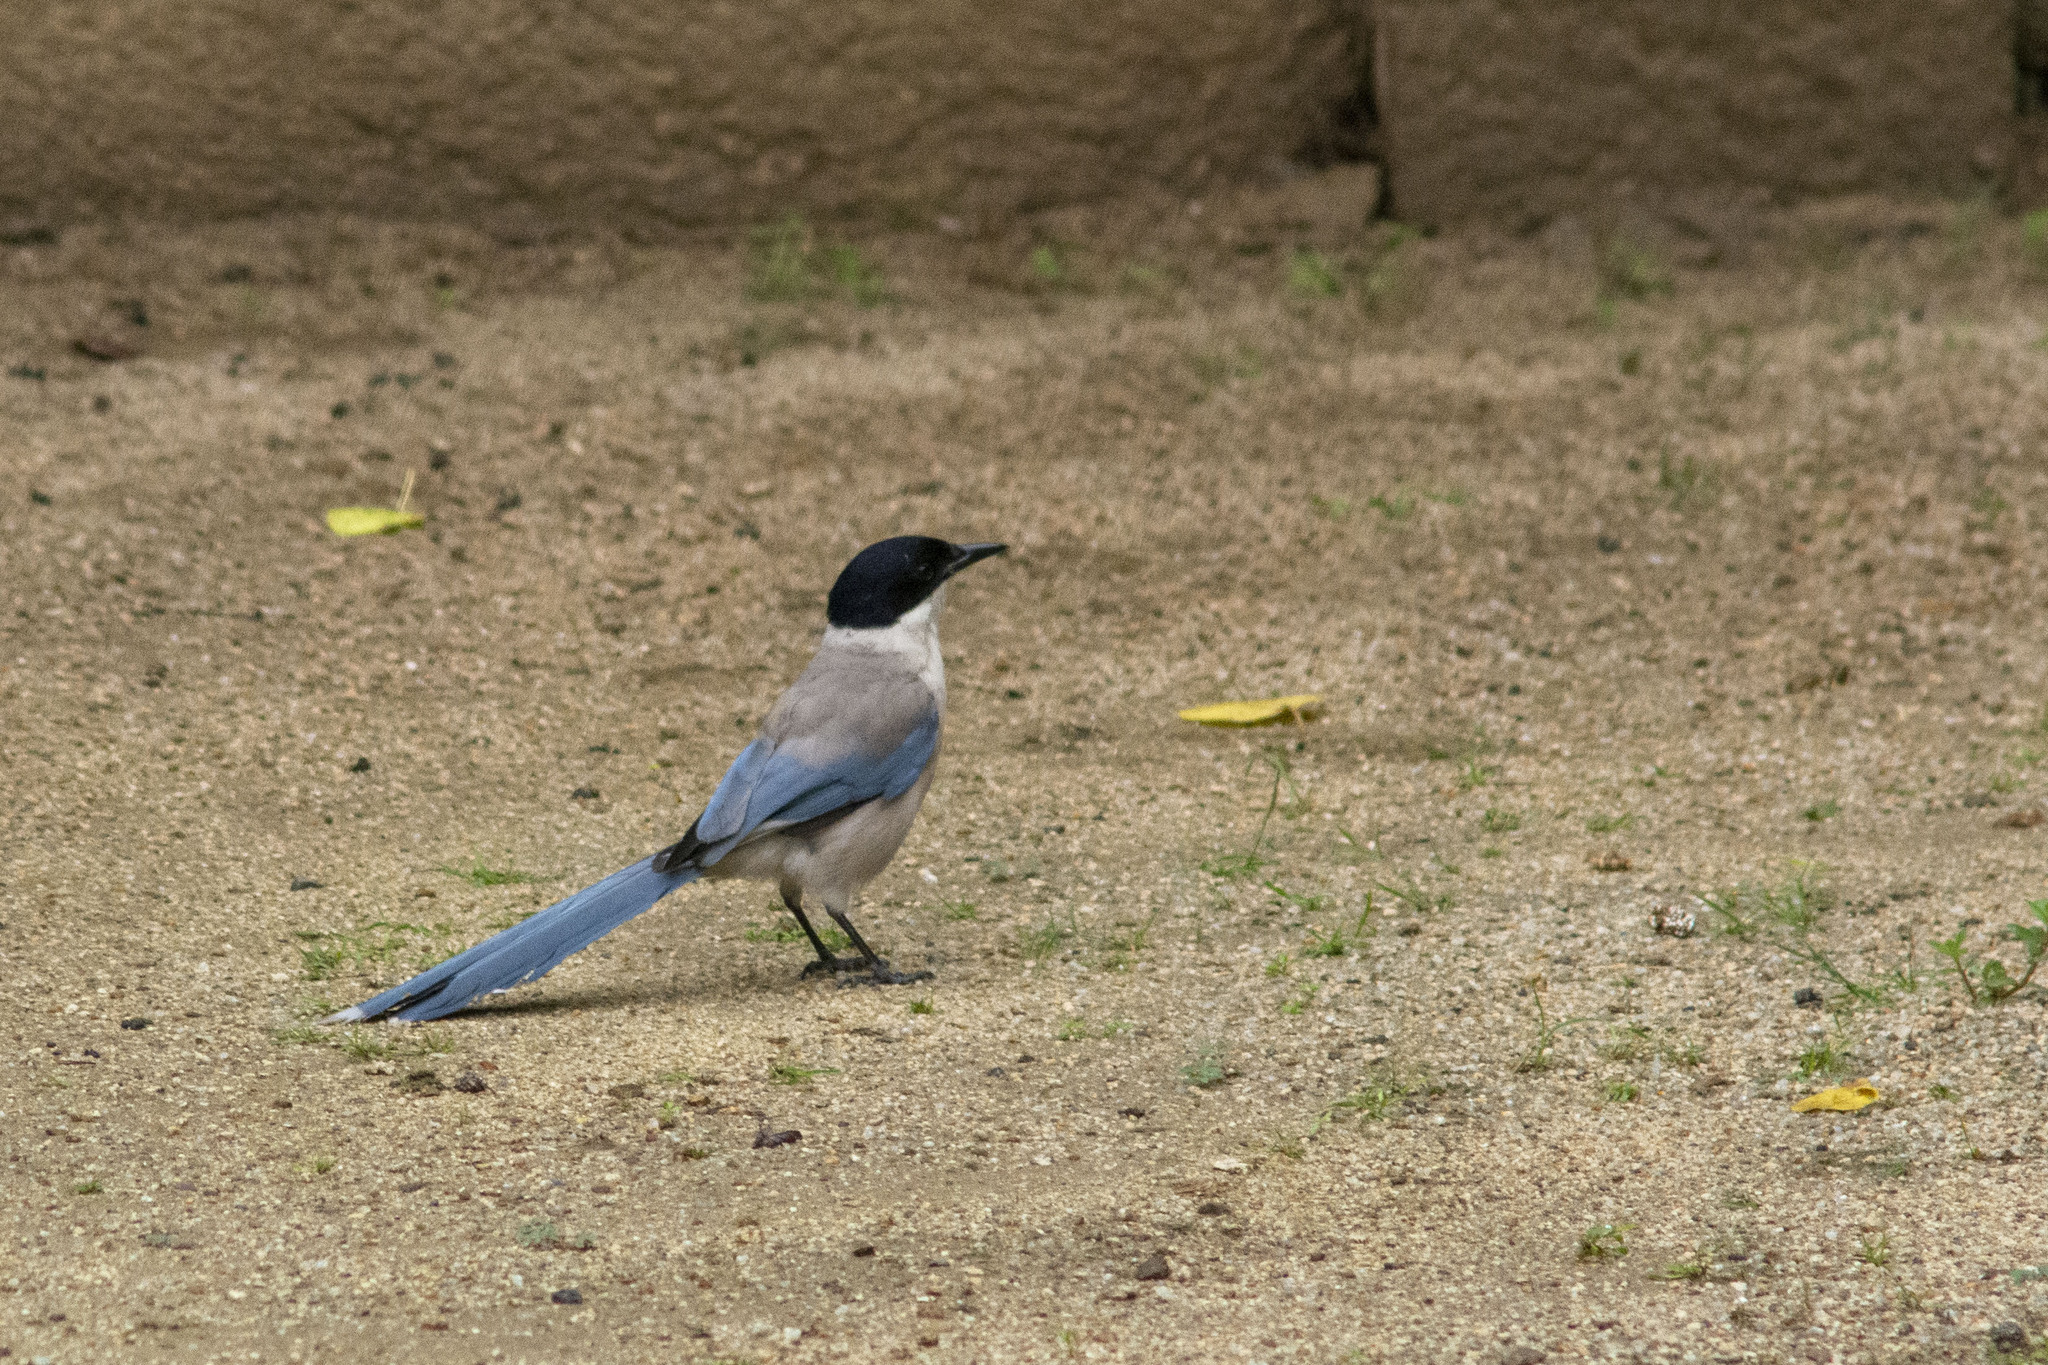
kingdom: Animalia
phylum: Chordata
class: Aves
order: Passeriformes
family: Corvidae
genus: Cyanopica
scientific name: Cyanopica cyanus
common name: Azure-winged magpie
